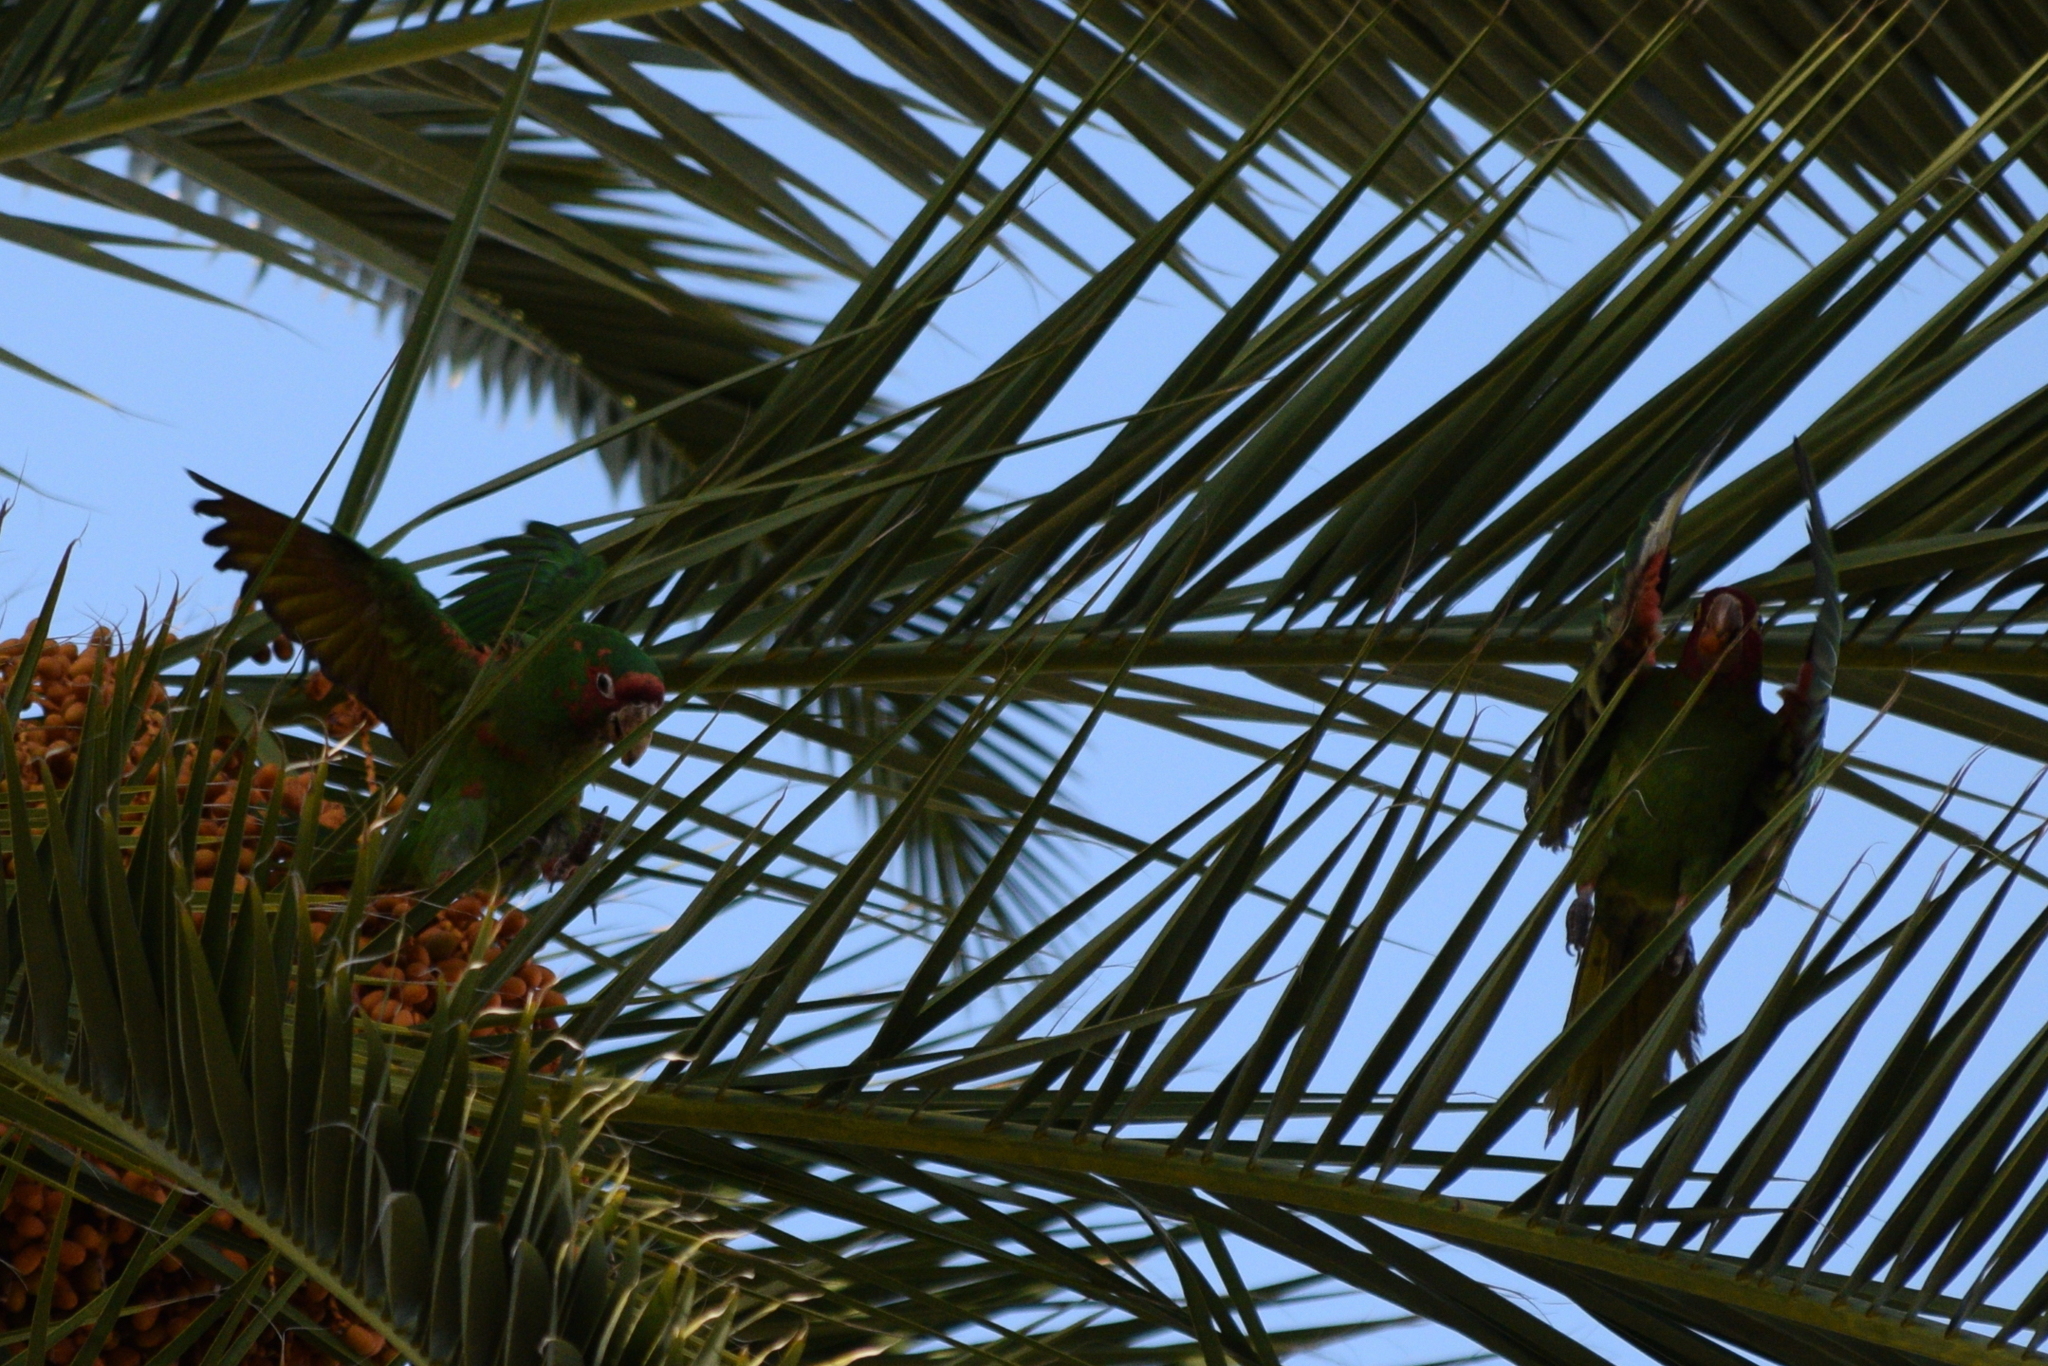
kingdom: Animalia
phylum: Chordata
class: Aves
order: Psittaciformes
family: Psittacidae
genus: Aratinga
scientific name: Aratinga erythrogenys
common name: Red-masked parakeet
